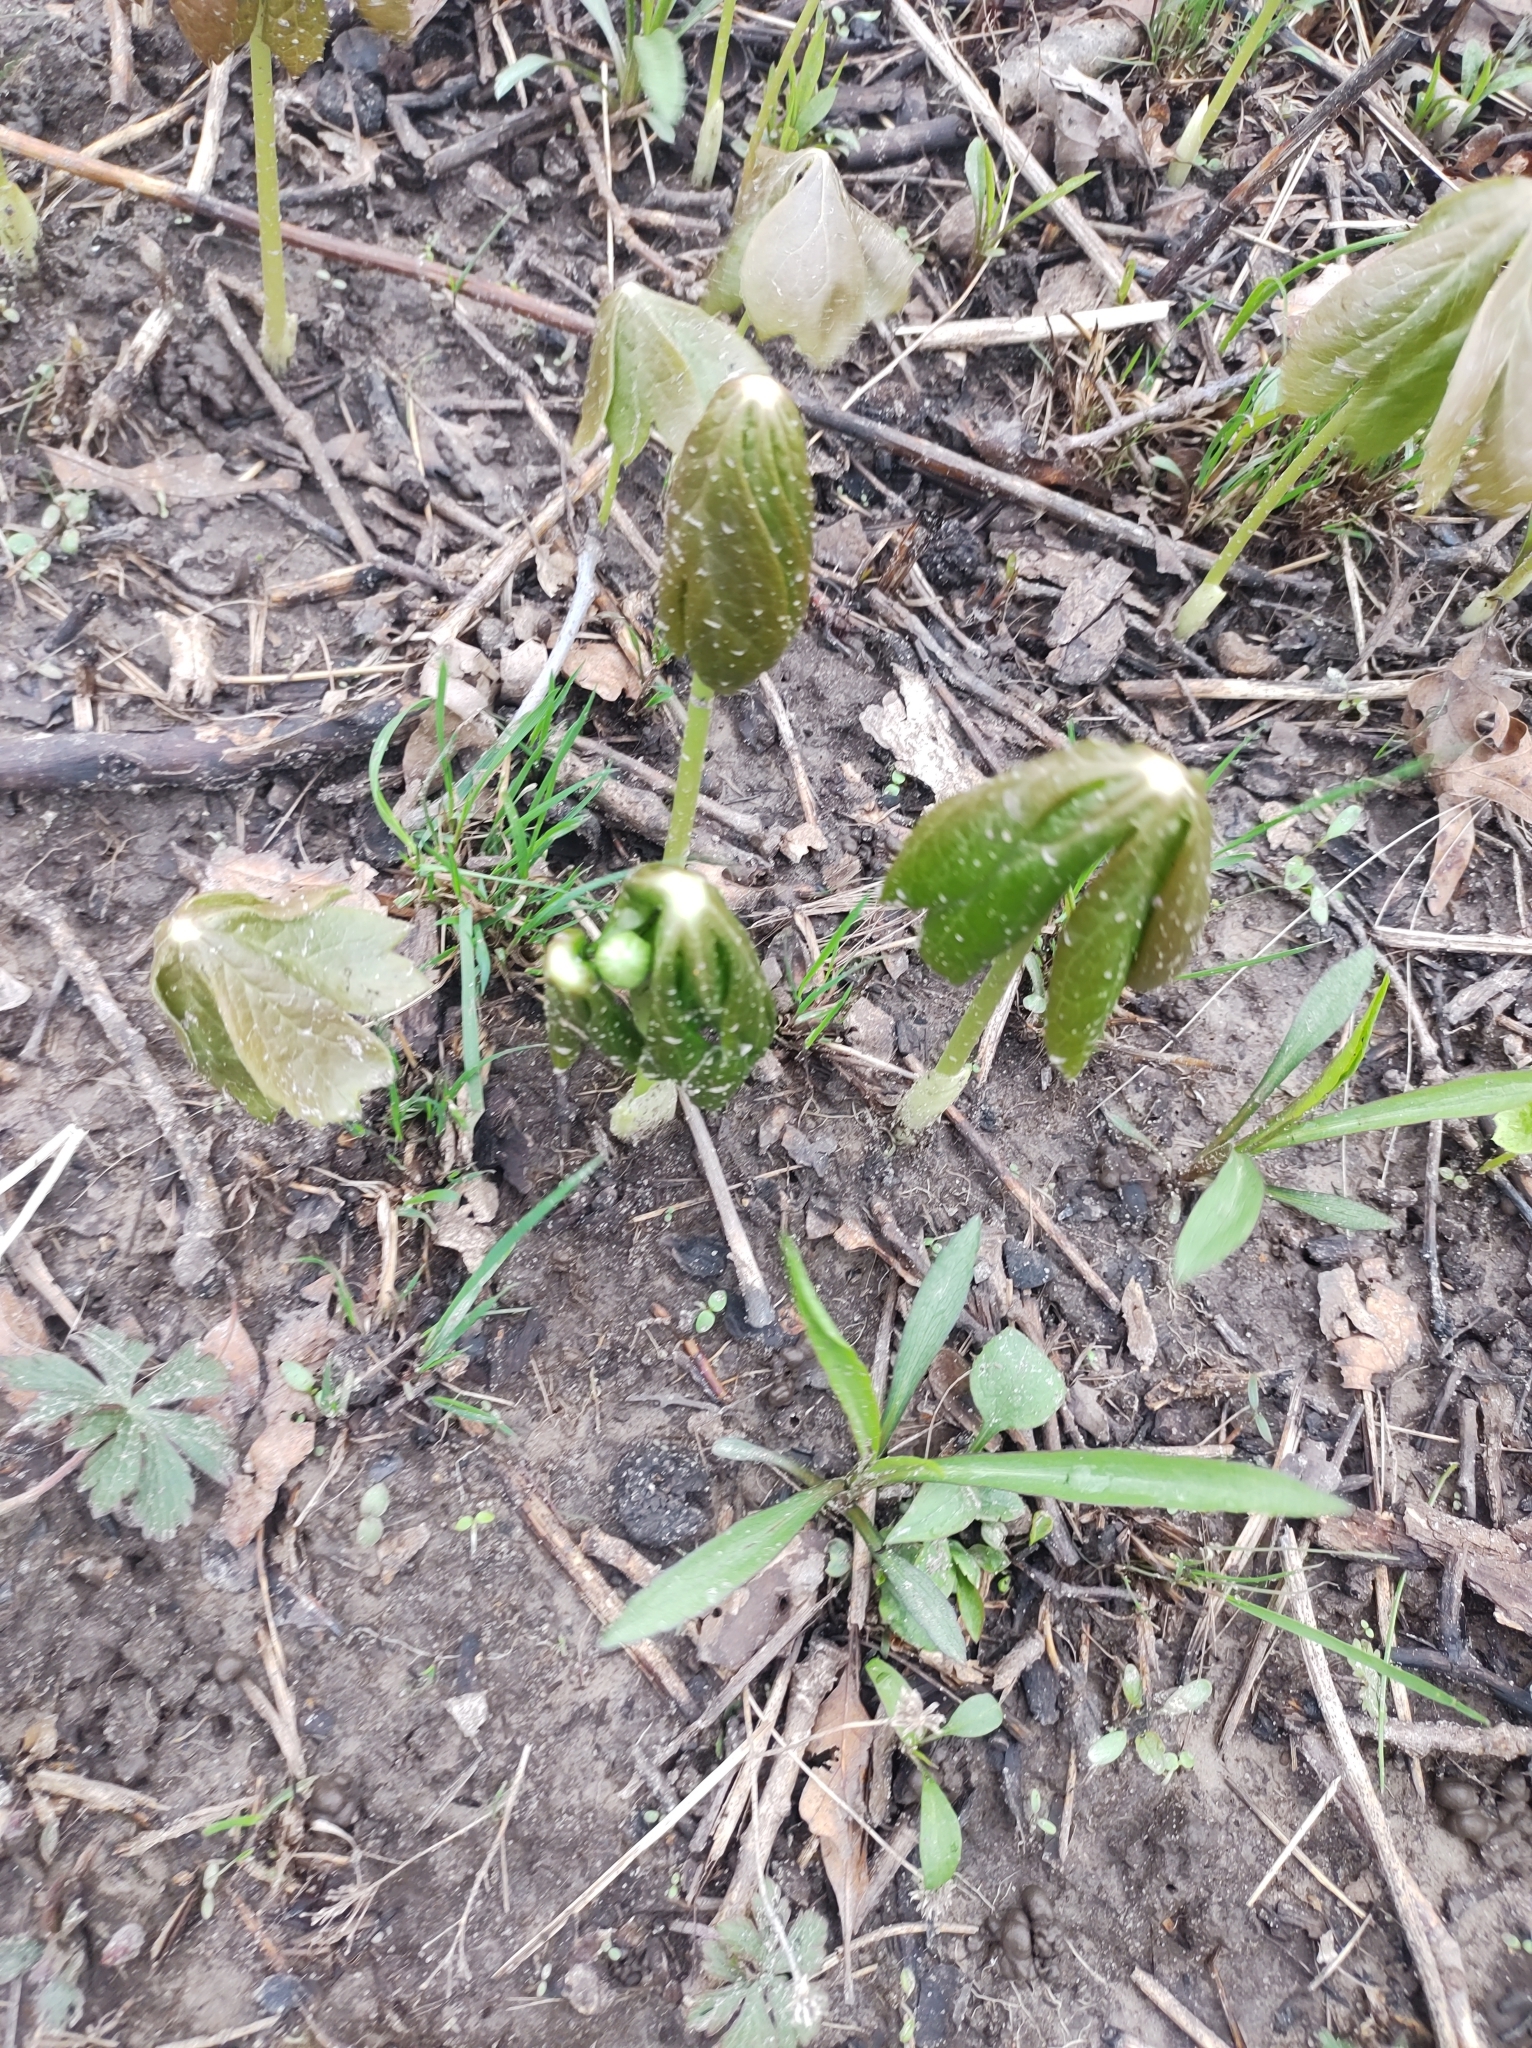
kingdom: Plantae
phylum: Tracheophyta
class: Magnoliopsida
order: Ranunculales
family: Berberidaceae
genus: Podophyllum
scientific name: Podophyllum peltatum
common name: Wild mandrake
